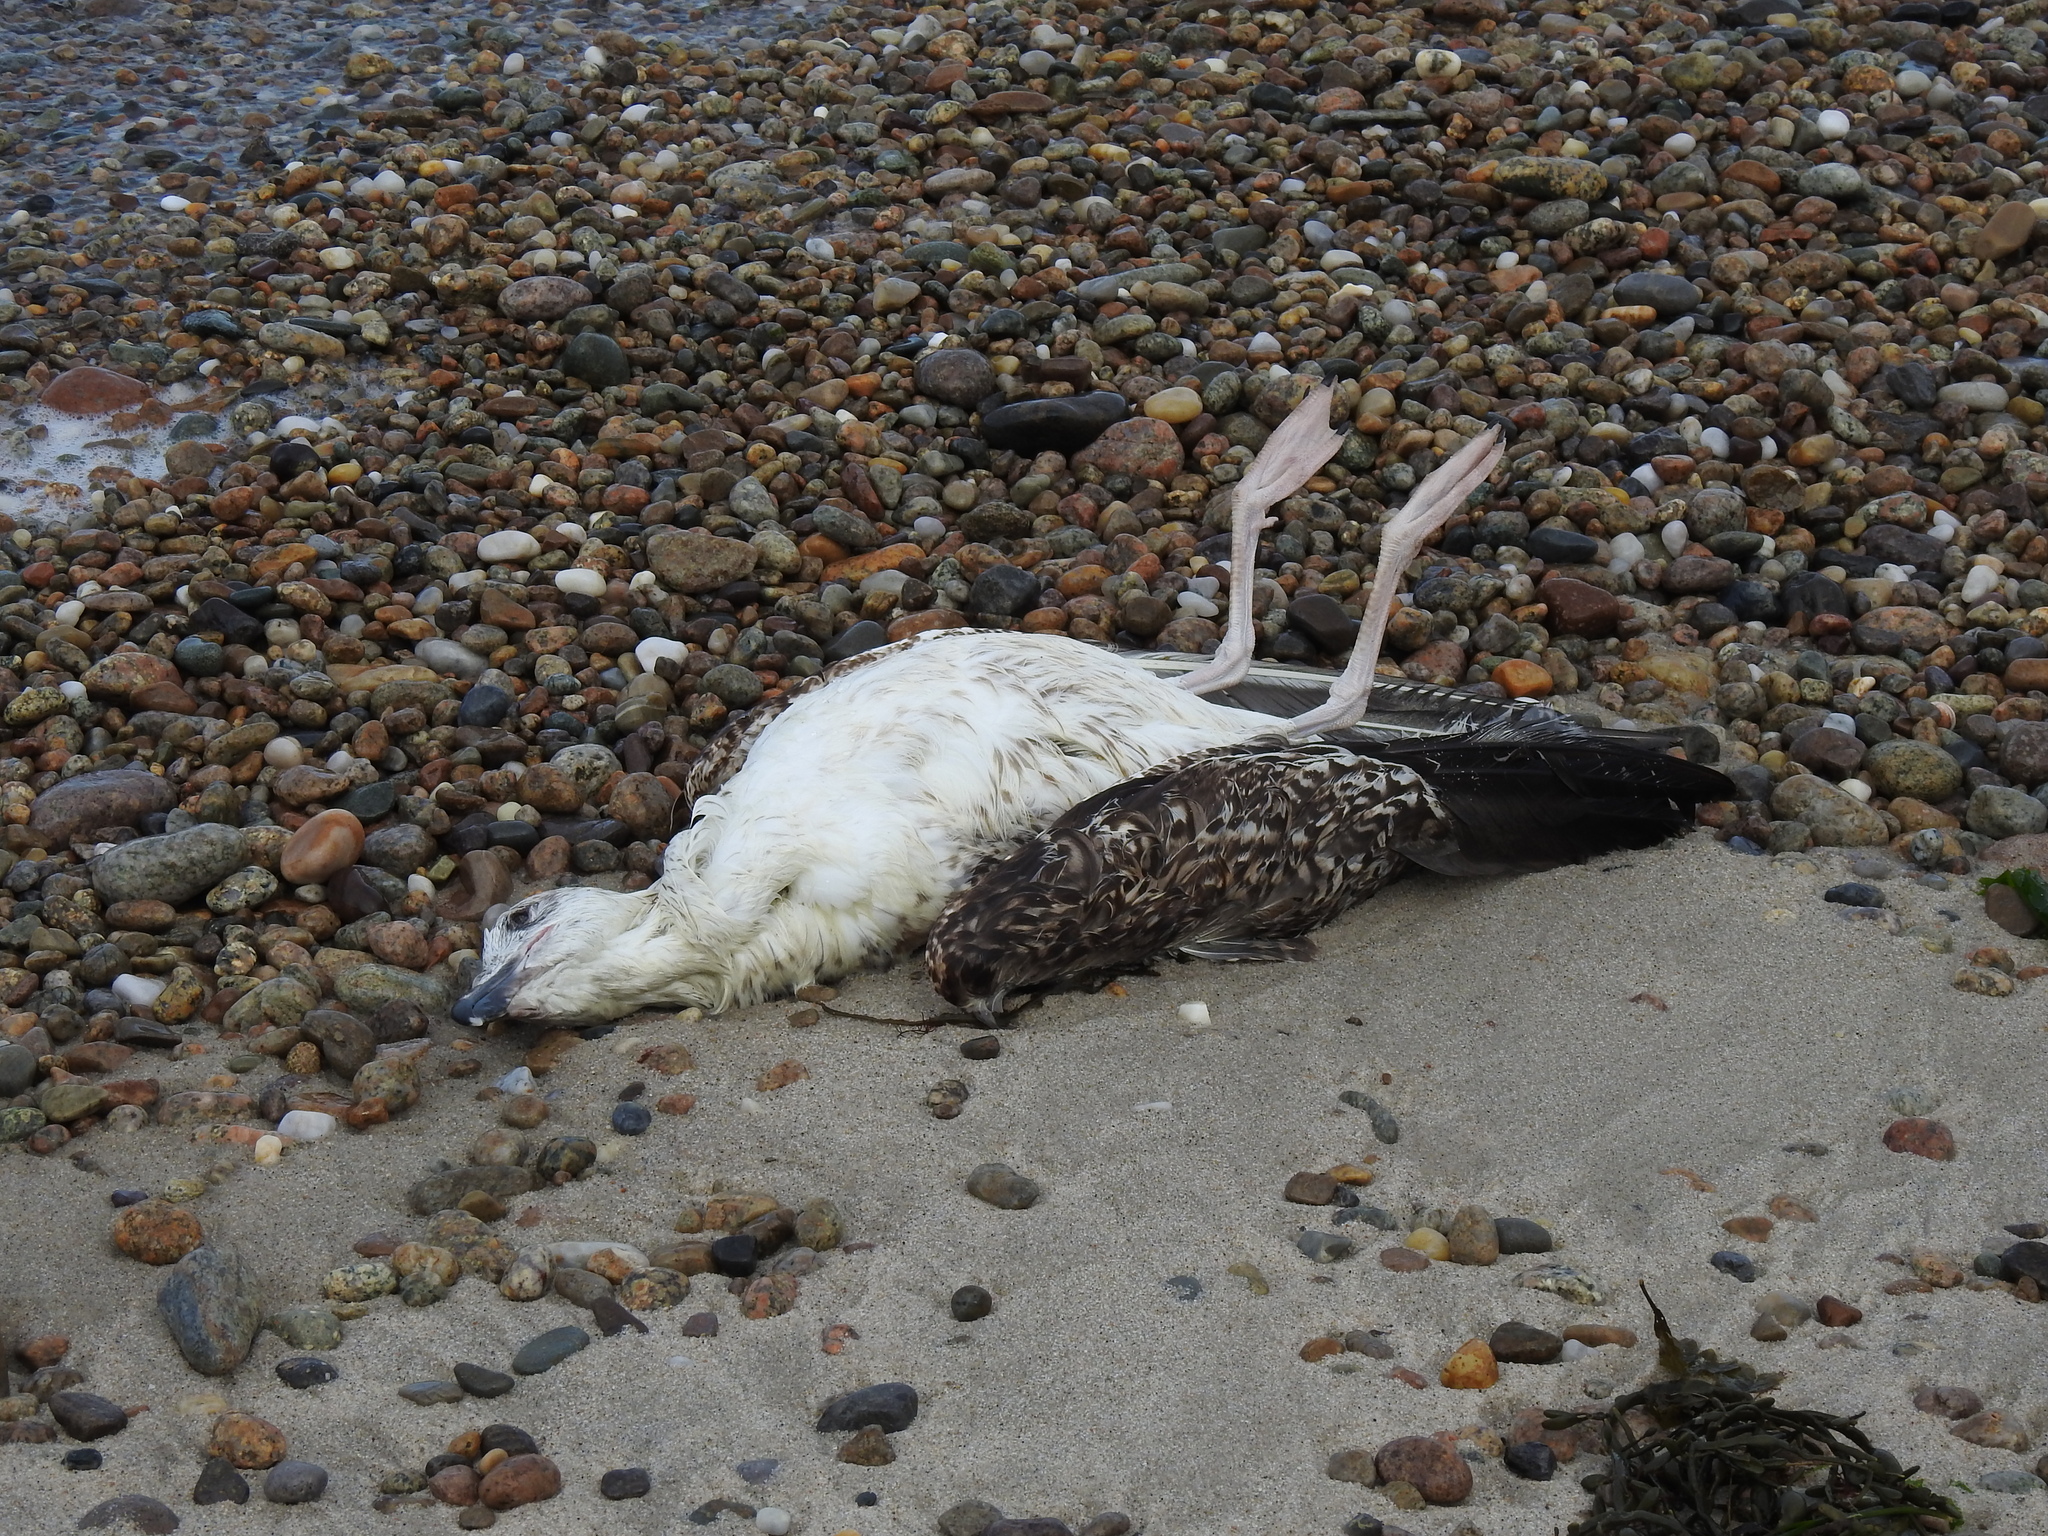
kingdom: Animalia
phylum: Chordata
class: Aves
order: Charadriiformes
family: Laridae
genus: Larus
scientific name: Larus marinus
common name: Great black-backed gull
